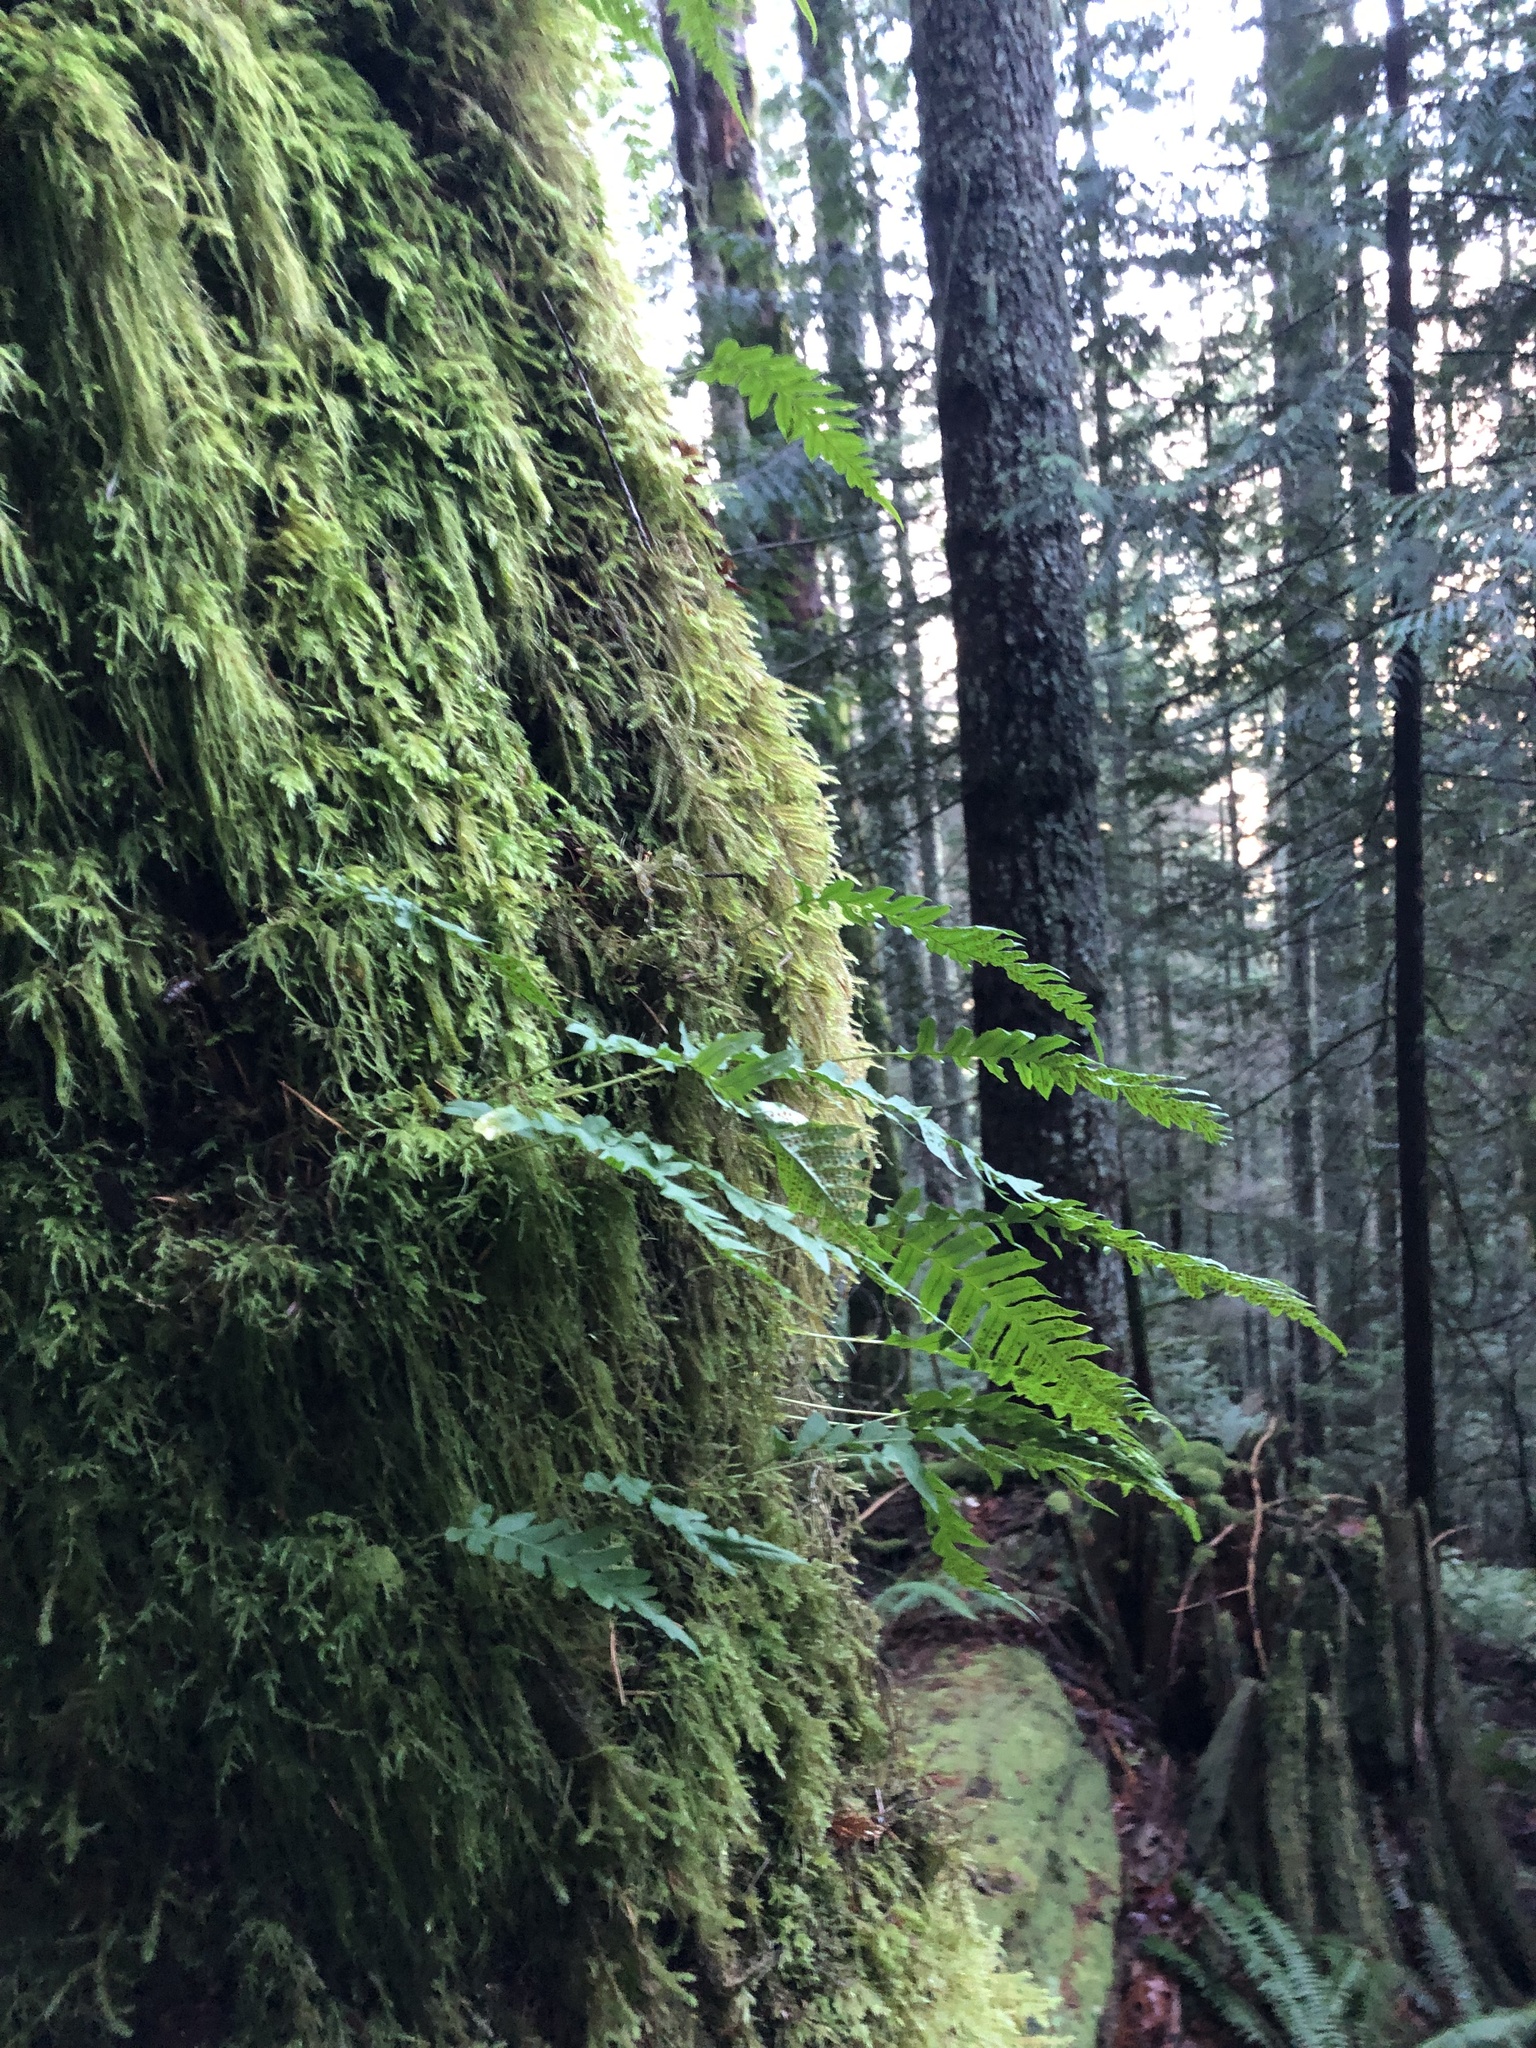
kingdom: Plantae
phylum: Tracheophyta
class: Polypodiopsida
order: Polypodiales
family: Polypodiaceae
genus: Polypodium
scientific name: Polypodium glycyrrhiza
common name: Licorice fern
